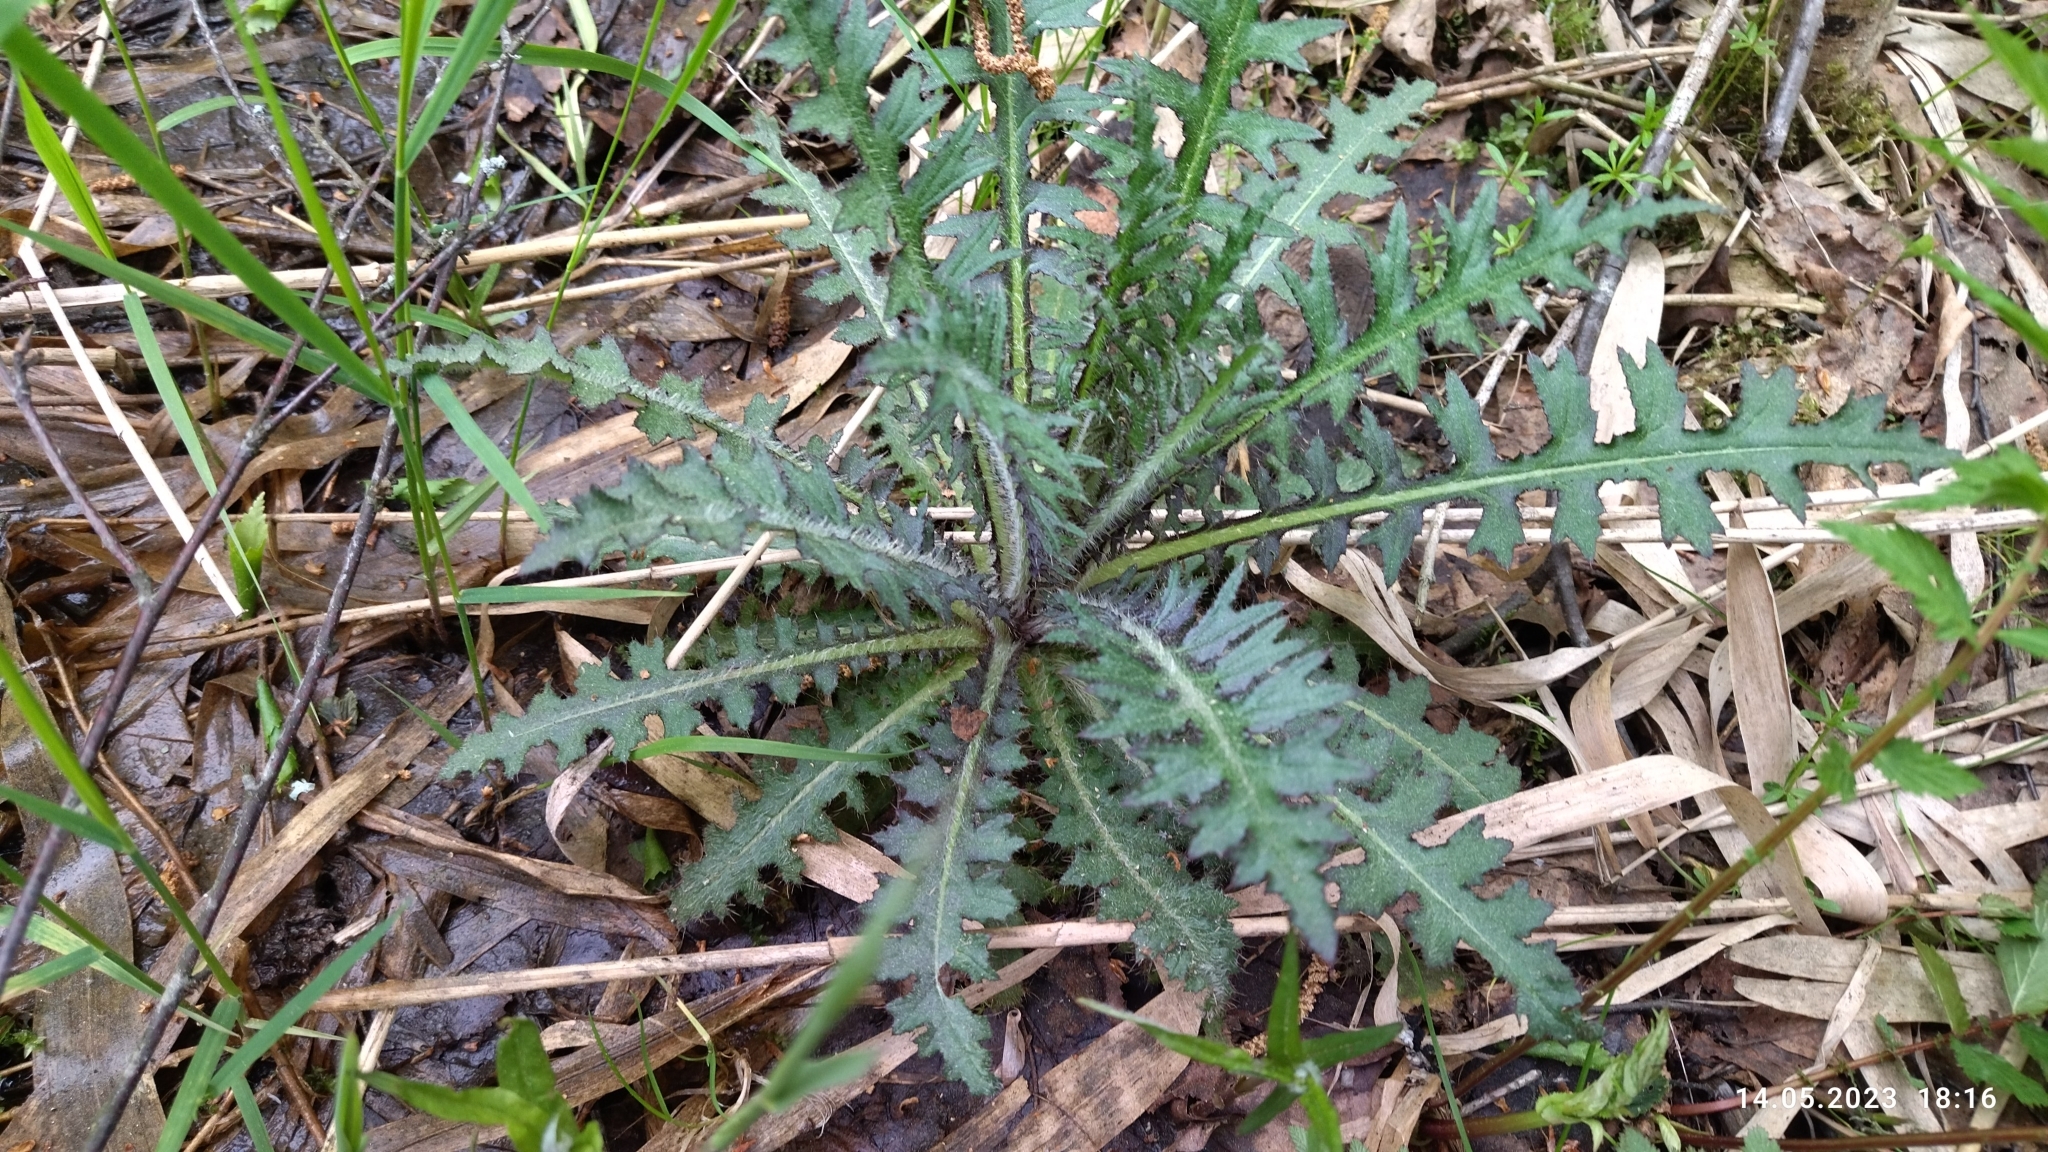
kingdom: Plantae
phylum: Tracheophyta
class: Magnoliopsida
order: Asterales
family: Asteraceae
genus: Cirsium
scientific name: Cirsium palustre
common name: Marsh thistle
